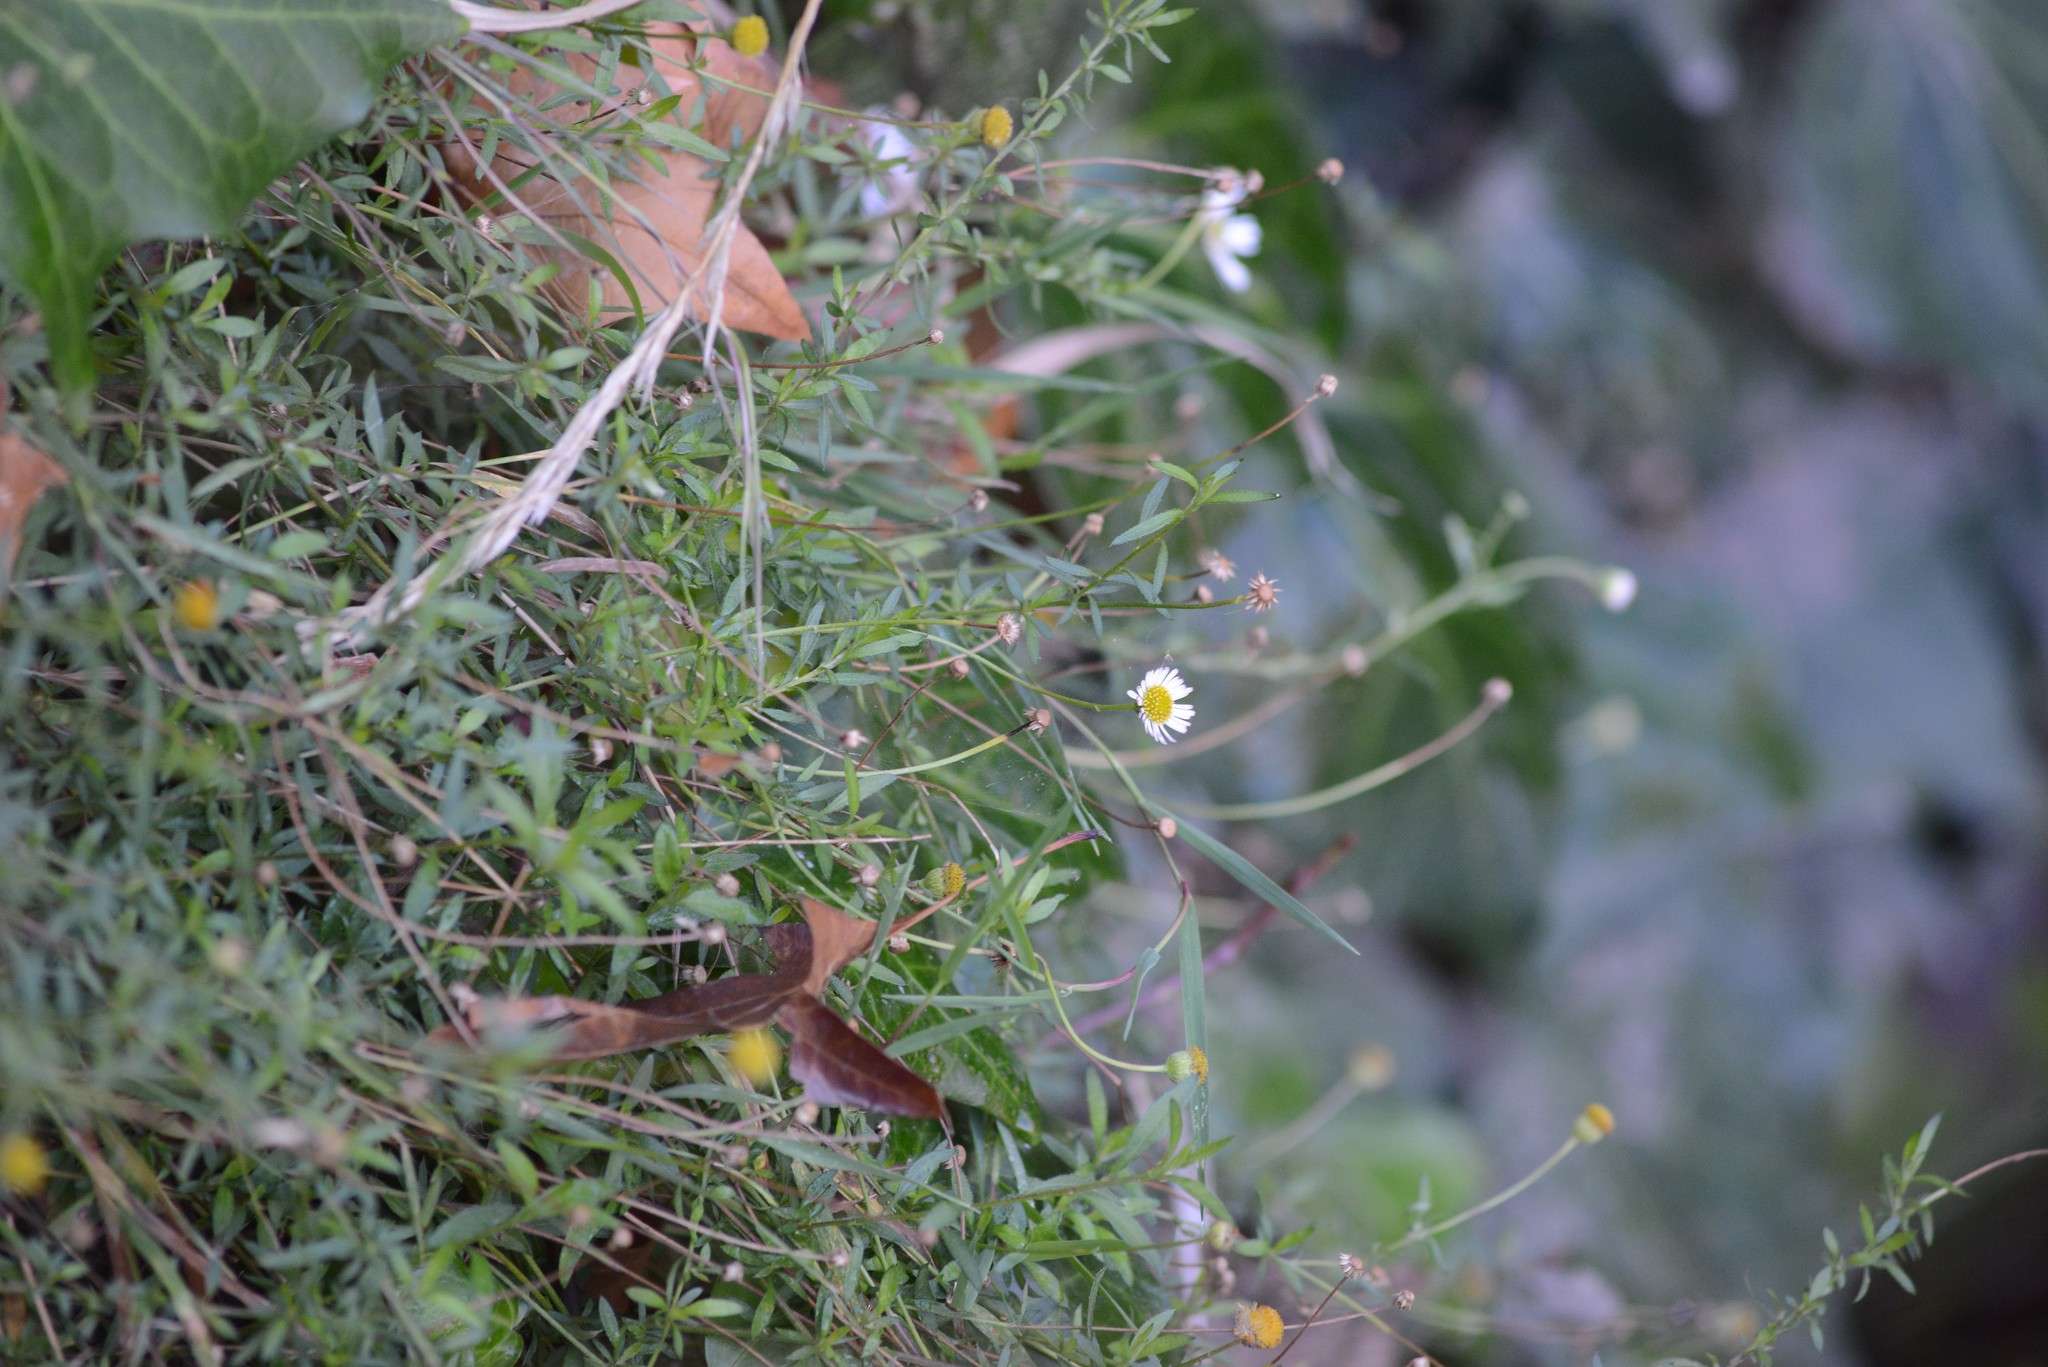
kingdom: Plantae
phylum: Tracheophyta
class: Magnoliopsida
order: Asterales
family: Asteraceae
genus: Erigeron
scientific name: Erigeron karvinskianus
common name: Mexican fleabane
